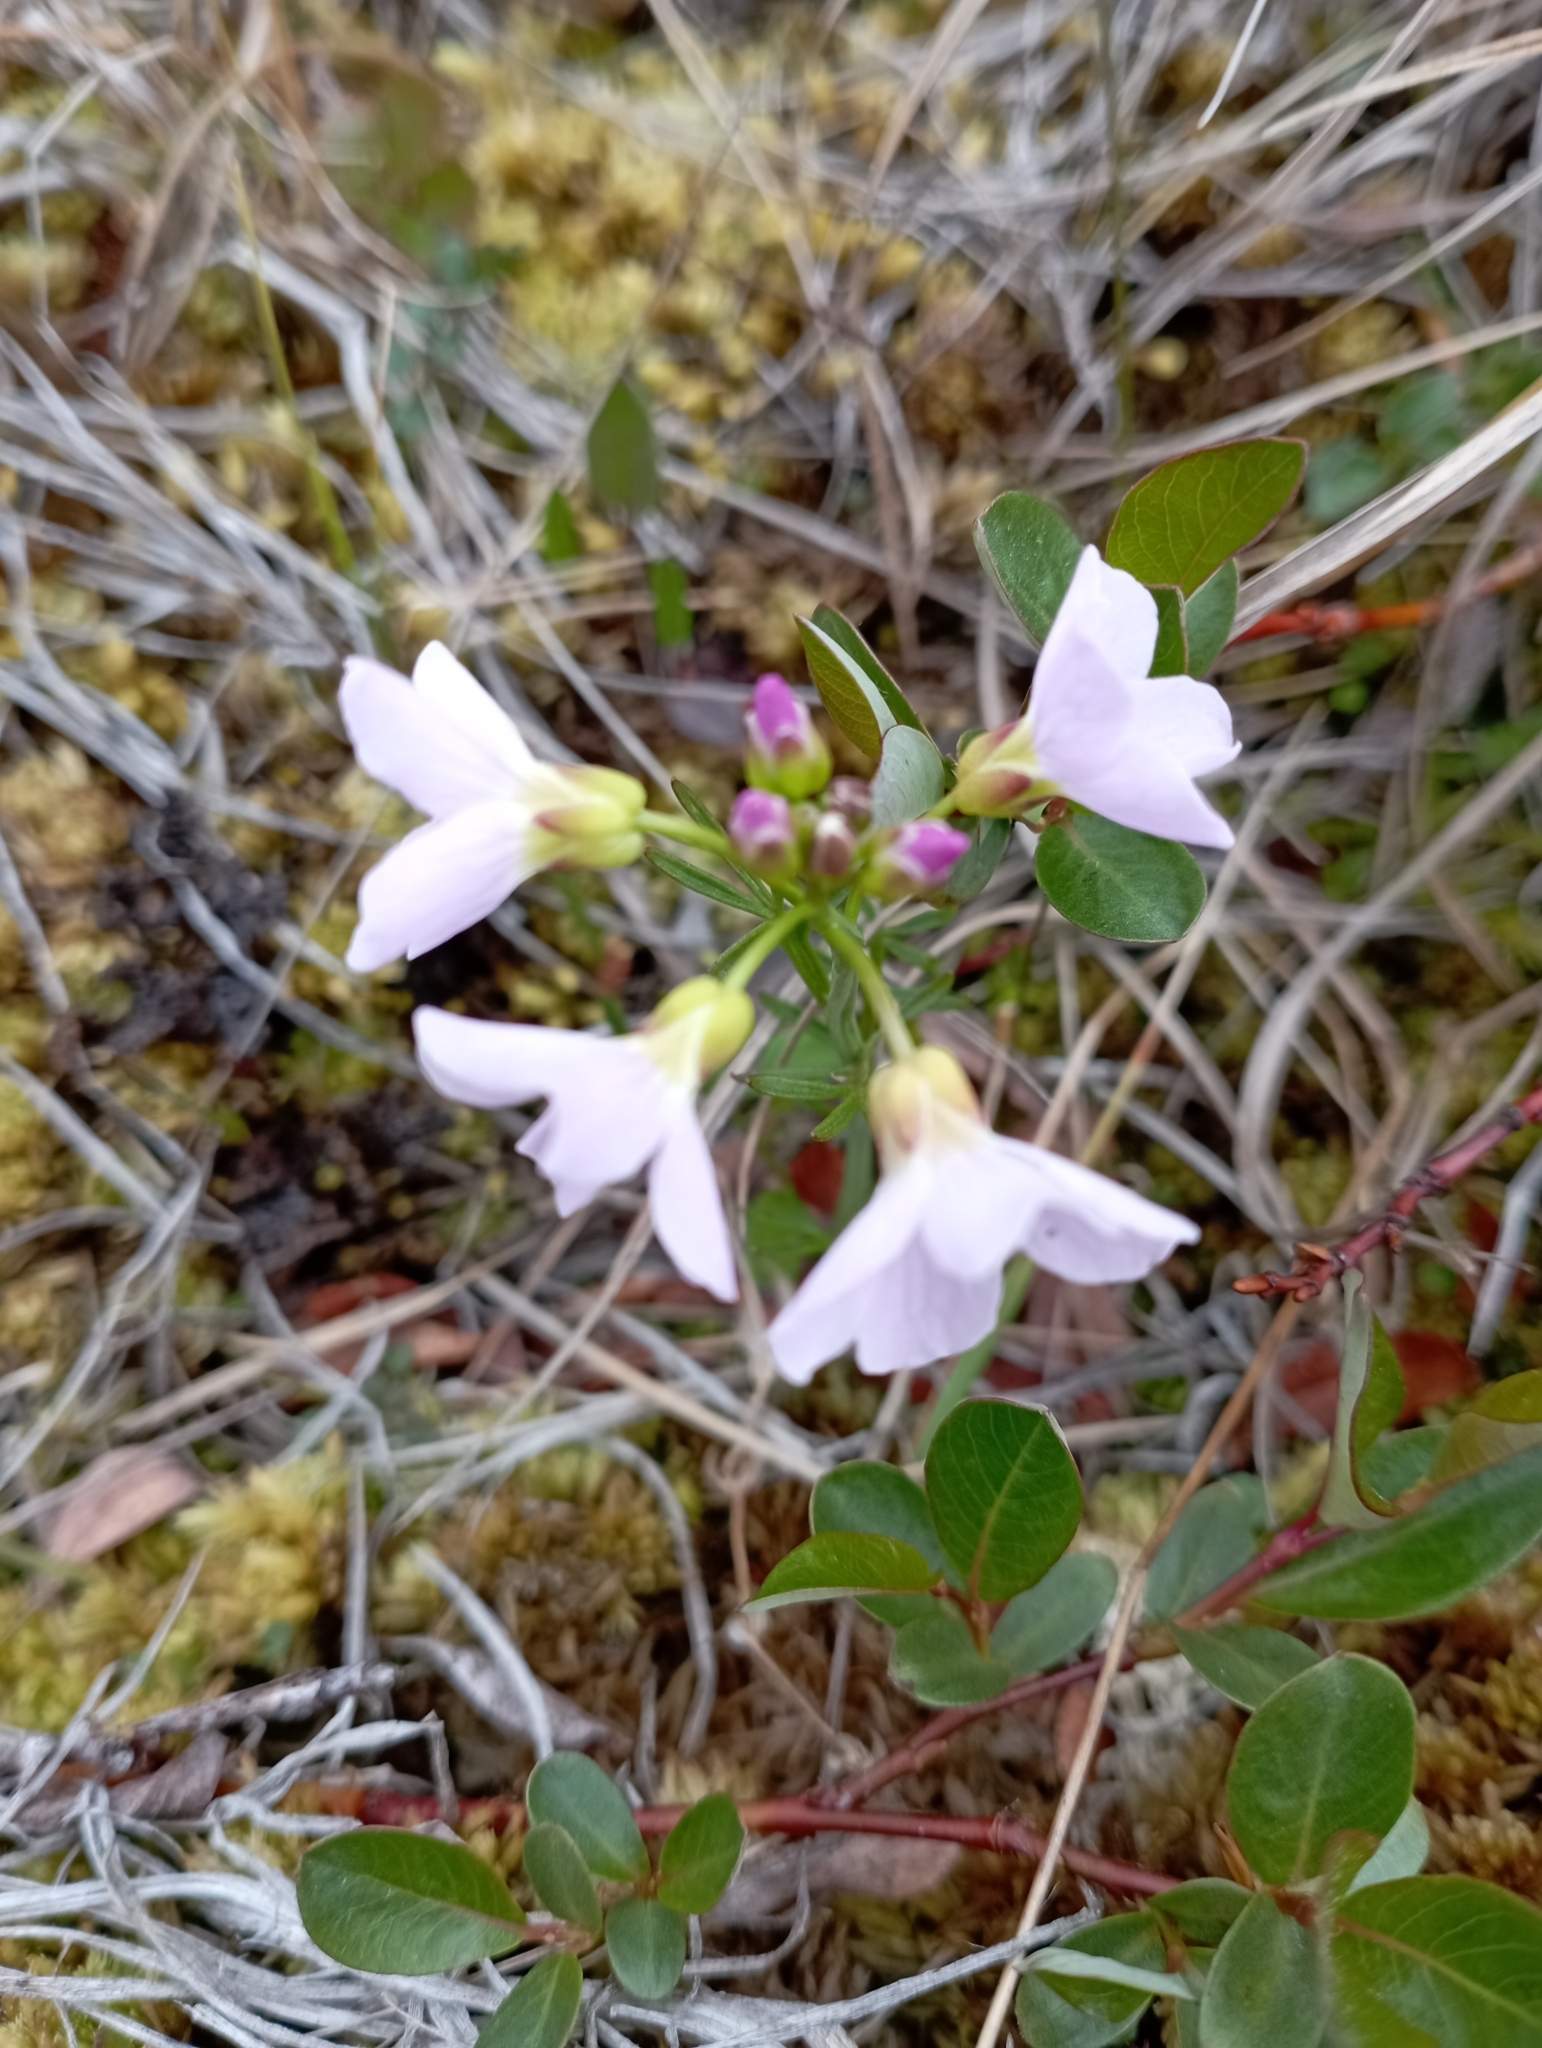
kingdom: Plantae
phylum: Tracheophyta
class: Magnoliopsida
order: Brassicales
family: Brassicaceae
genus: Cardamine
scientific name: Cardamine nymanii
